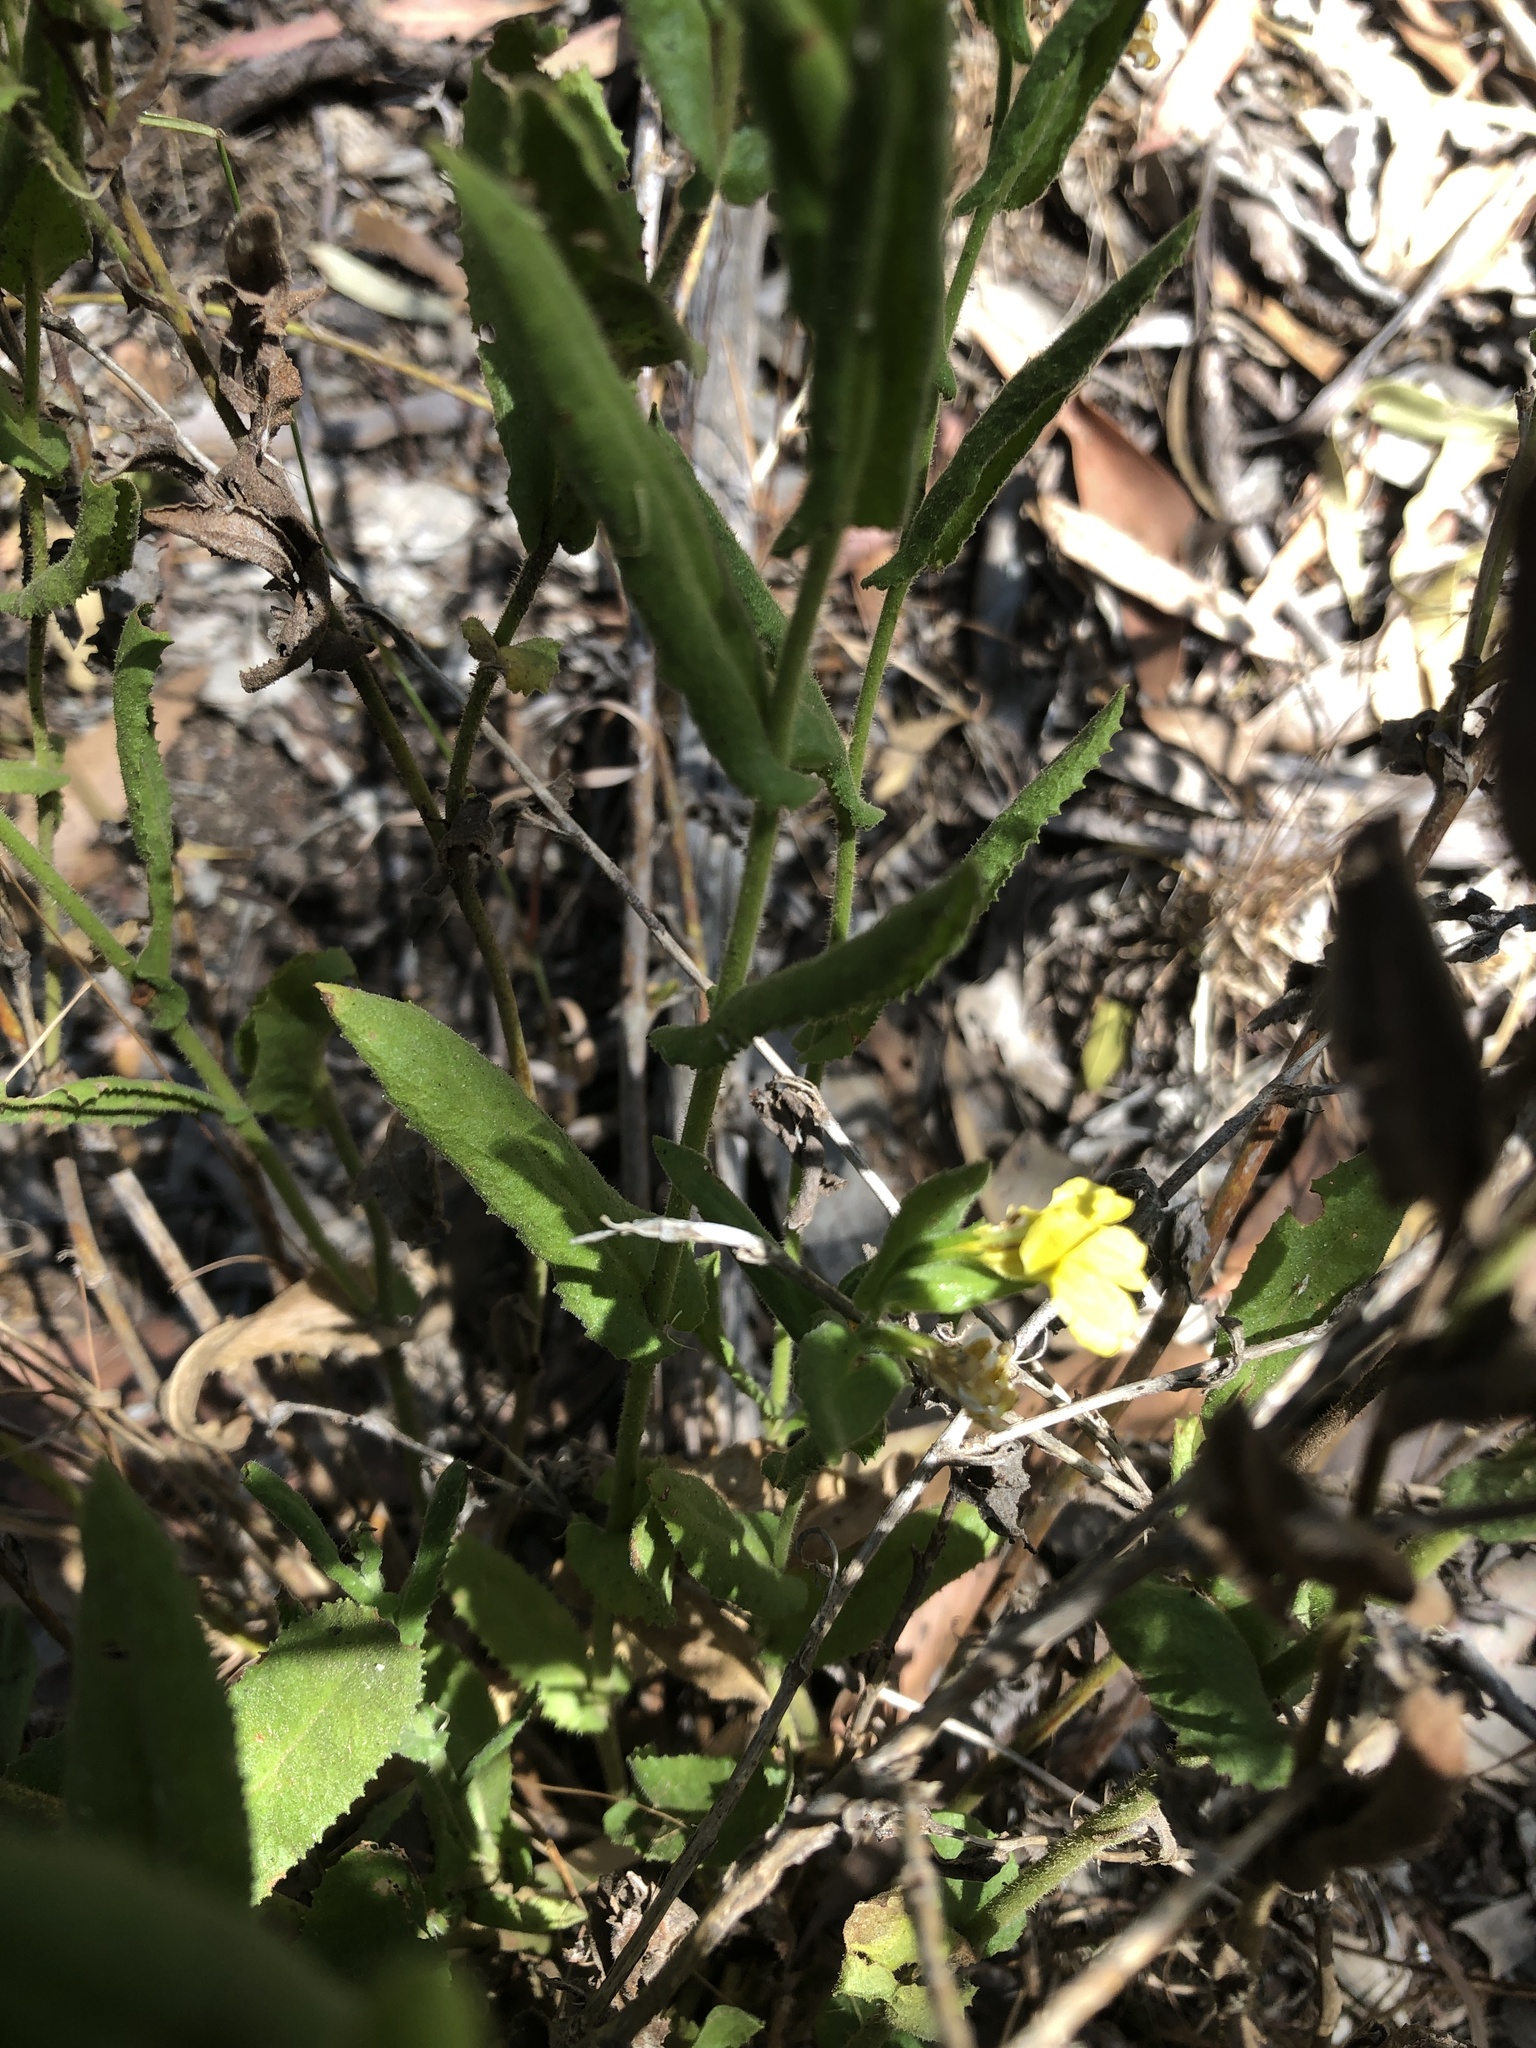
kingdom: Plantae
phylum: Tracheophyta
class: Magnoliopsida
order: Asterales
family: Goodeniaceae
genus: Goodenia
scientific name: Goodenia amplexans
